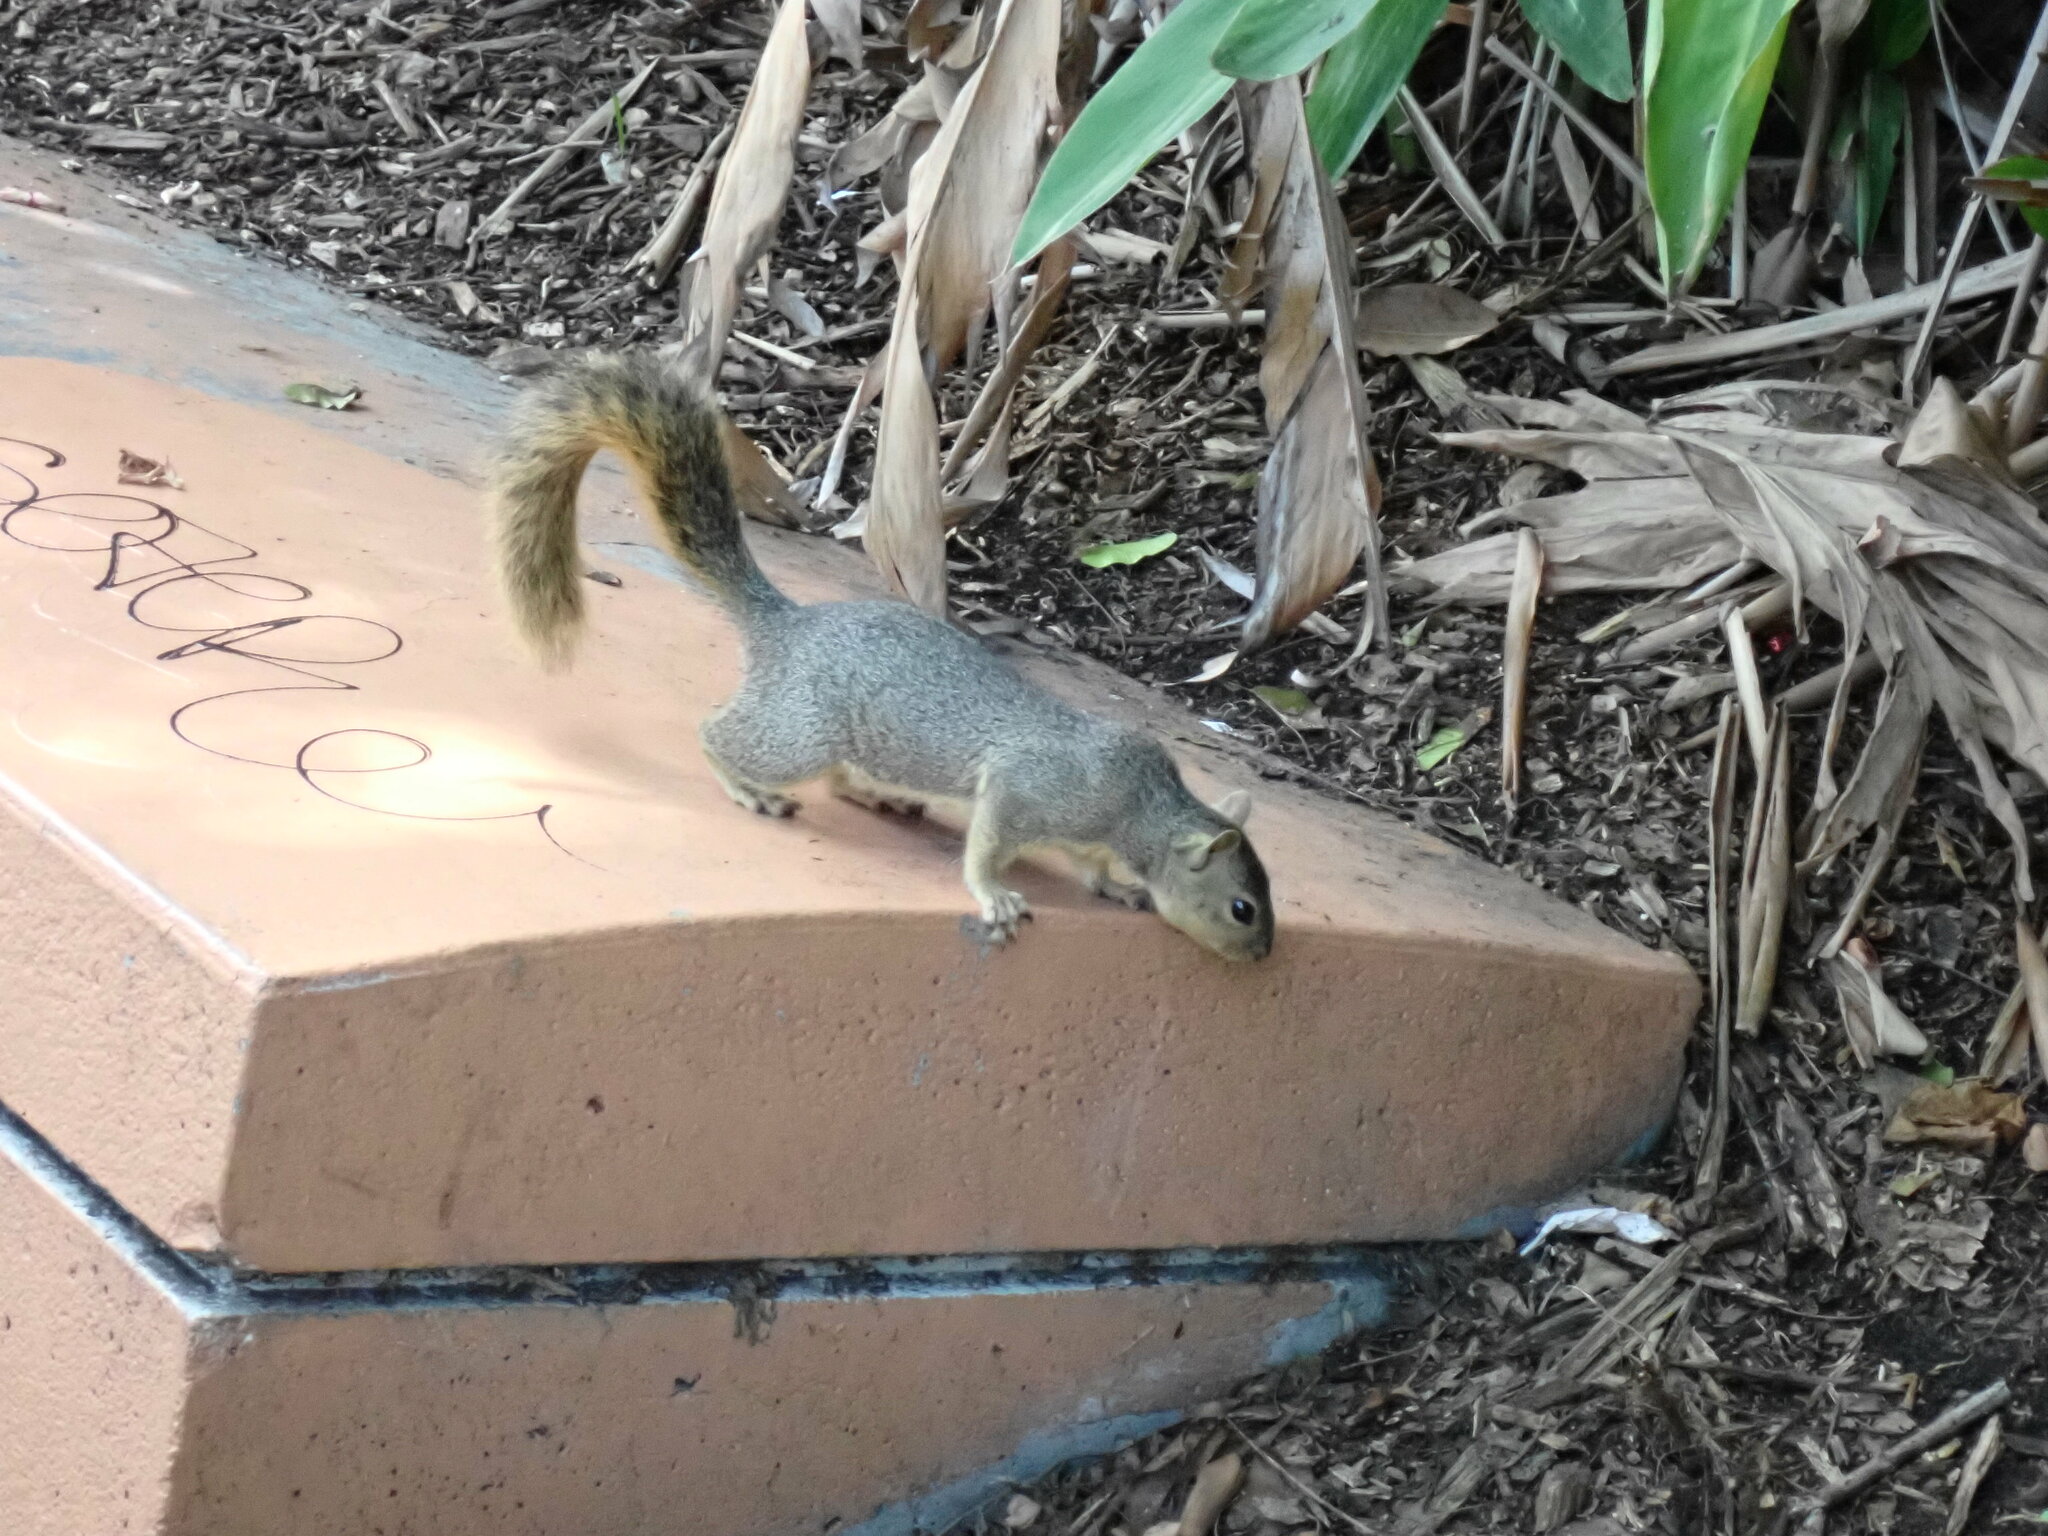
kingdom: Animalia
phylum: Chordata
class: Mammalia
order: Rodentia
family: Sciuridae
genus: Sciurus
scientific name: Sciurus niger
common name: Fox squirrel
